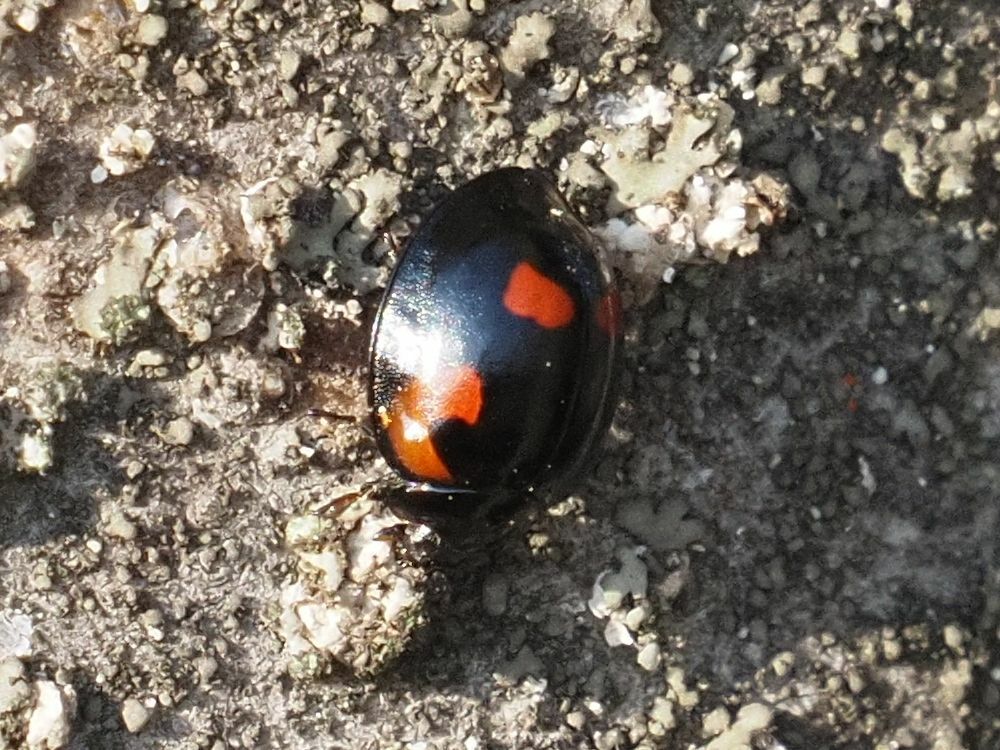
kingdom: Animalia
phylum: Arthropoda
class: Insecta
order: Coleoptera
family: Coccinellidae
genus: Brumus
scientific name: Brumus quadripustulatus
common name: Ladybird beetle
